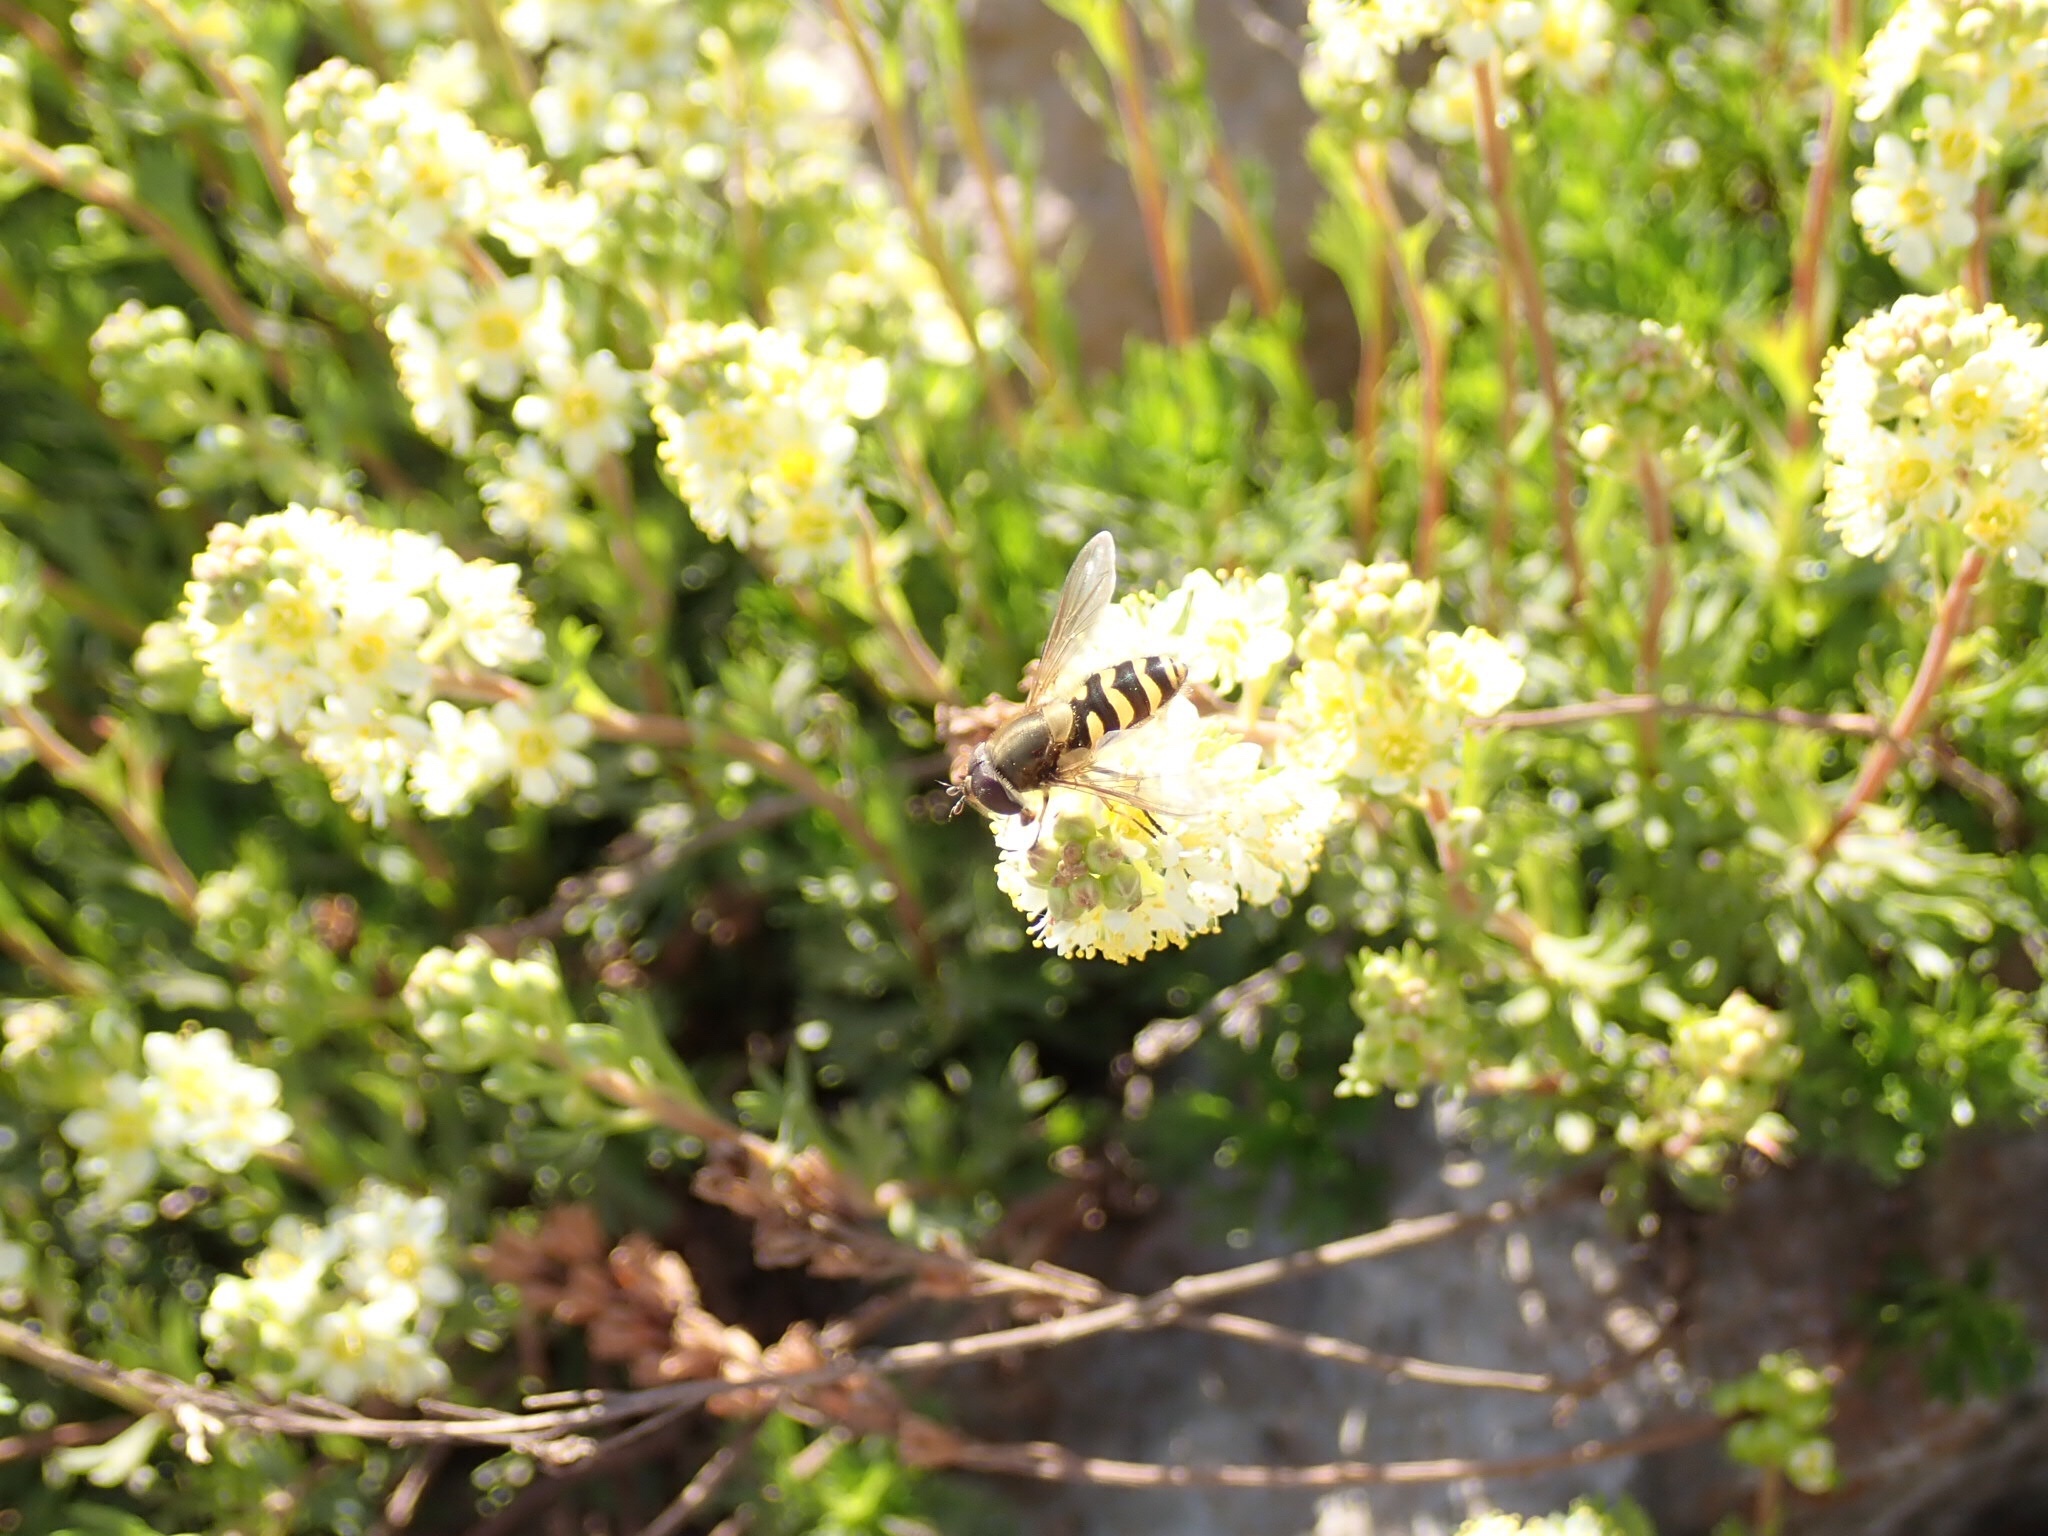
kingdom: Animalia
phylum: Arthropoda
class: Insecta
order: Diptera
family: Syrphidae
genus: Syrphus
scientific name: Syrphus
